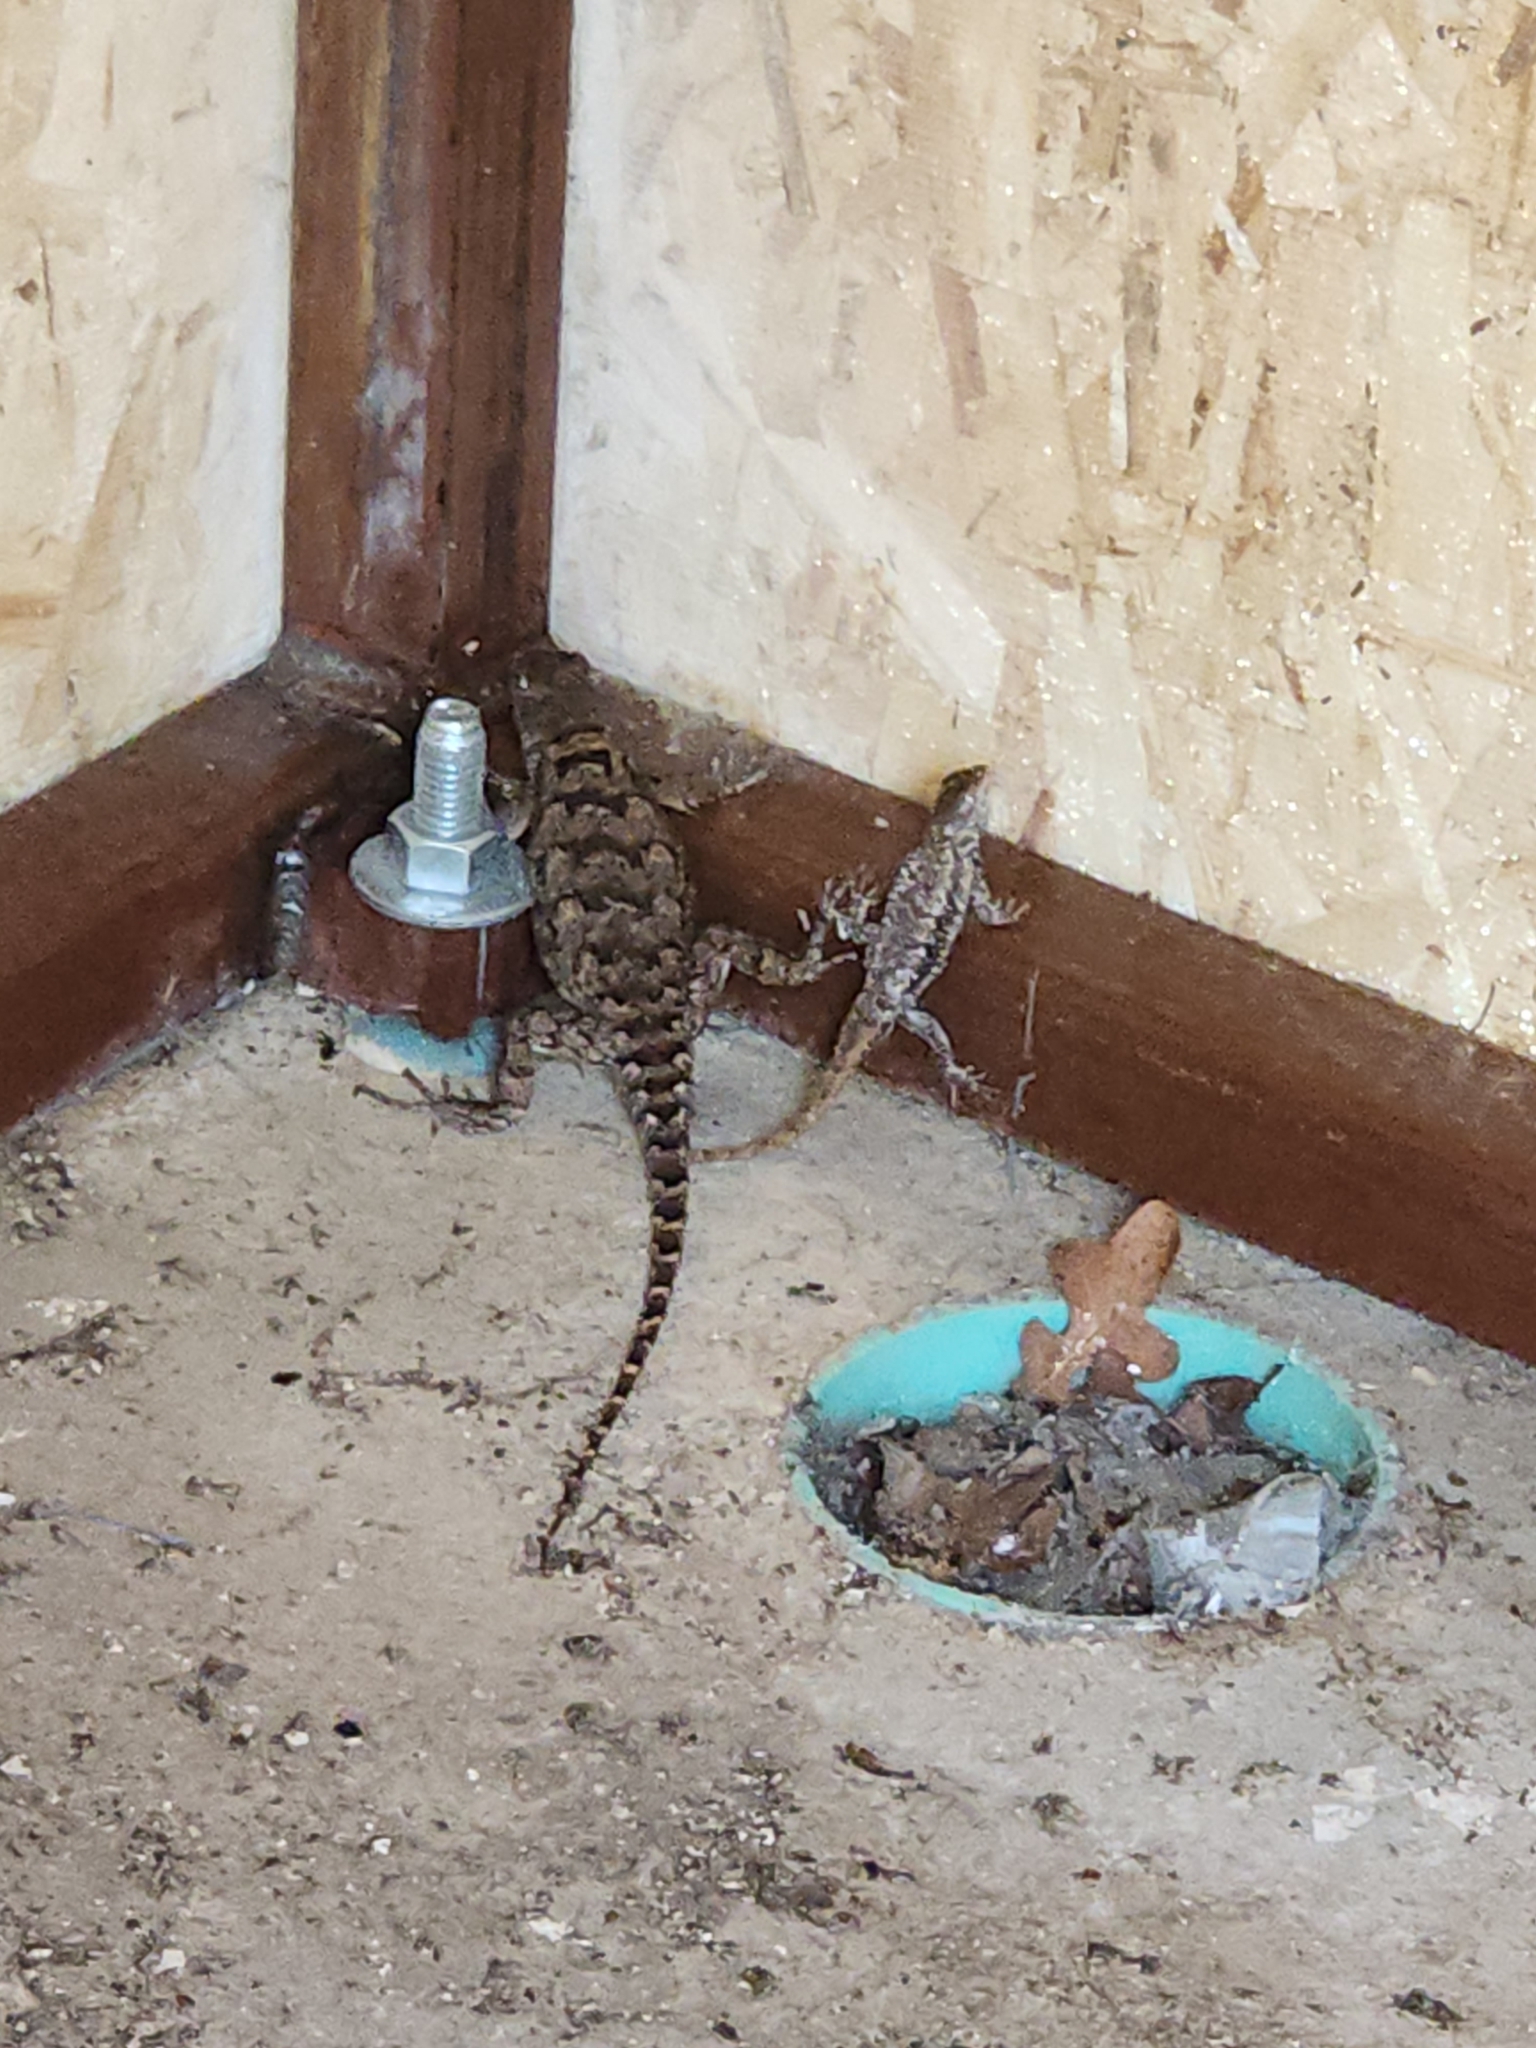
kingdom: Animalia
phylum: Chordata
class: Squamata
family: Phrynosomatidae
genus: Sceloporus
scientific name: Sceloporus olivaceus
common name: Texas spiny lizard
